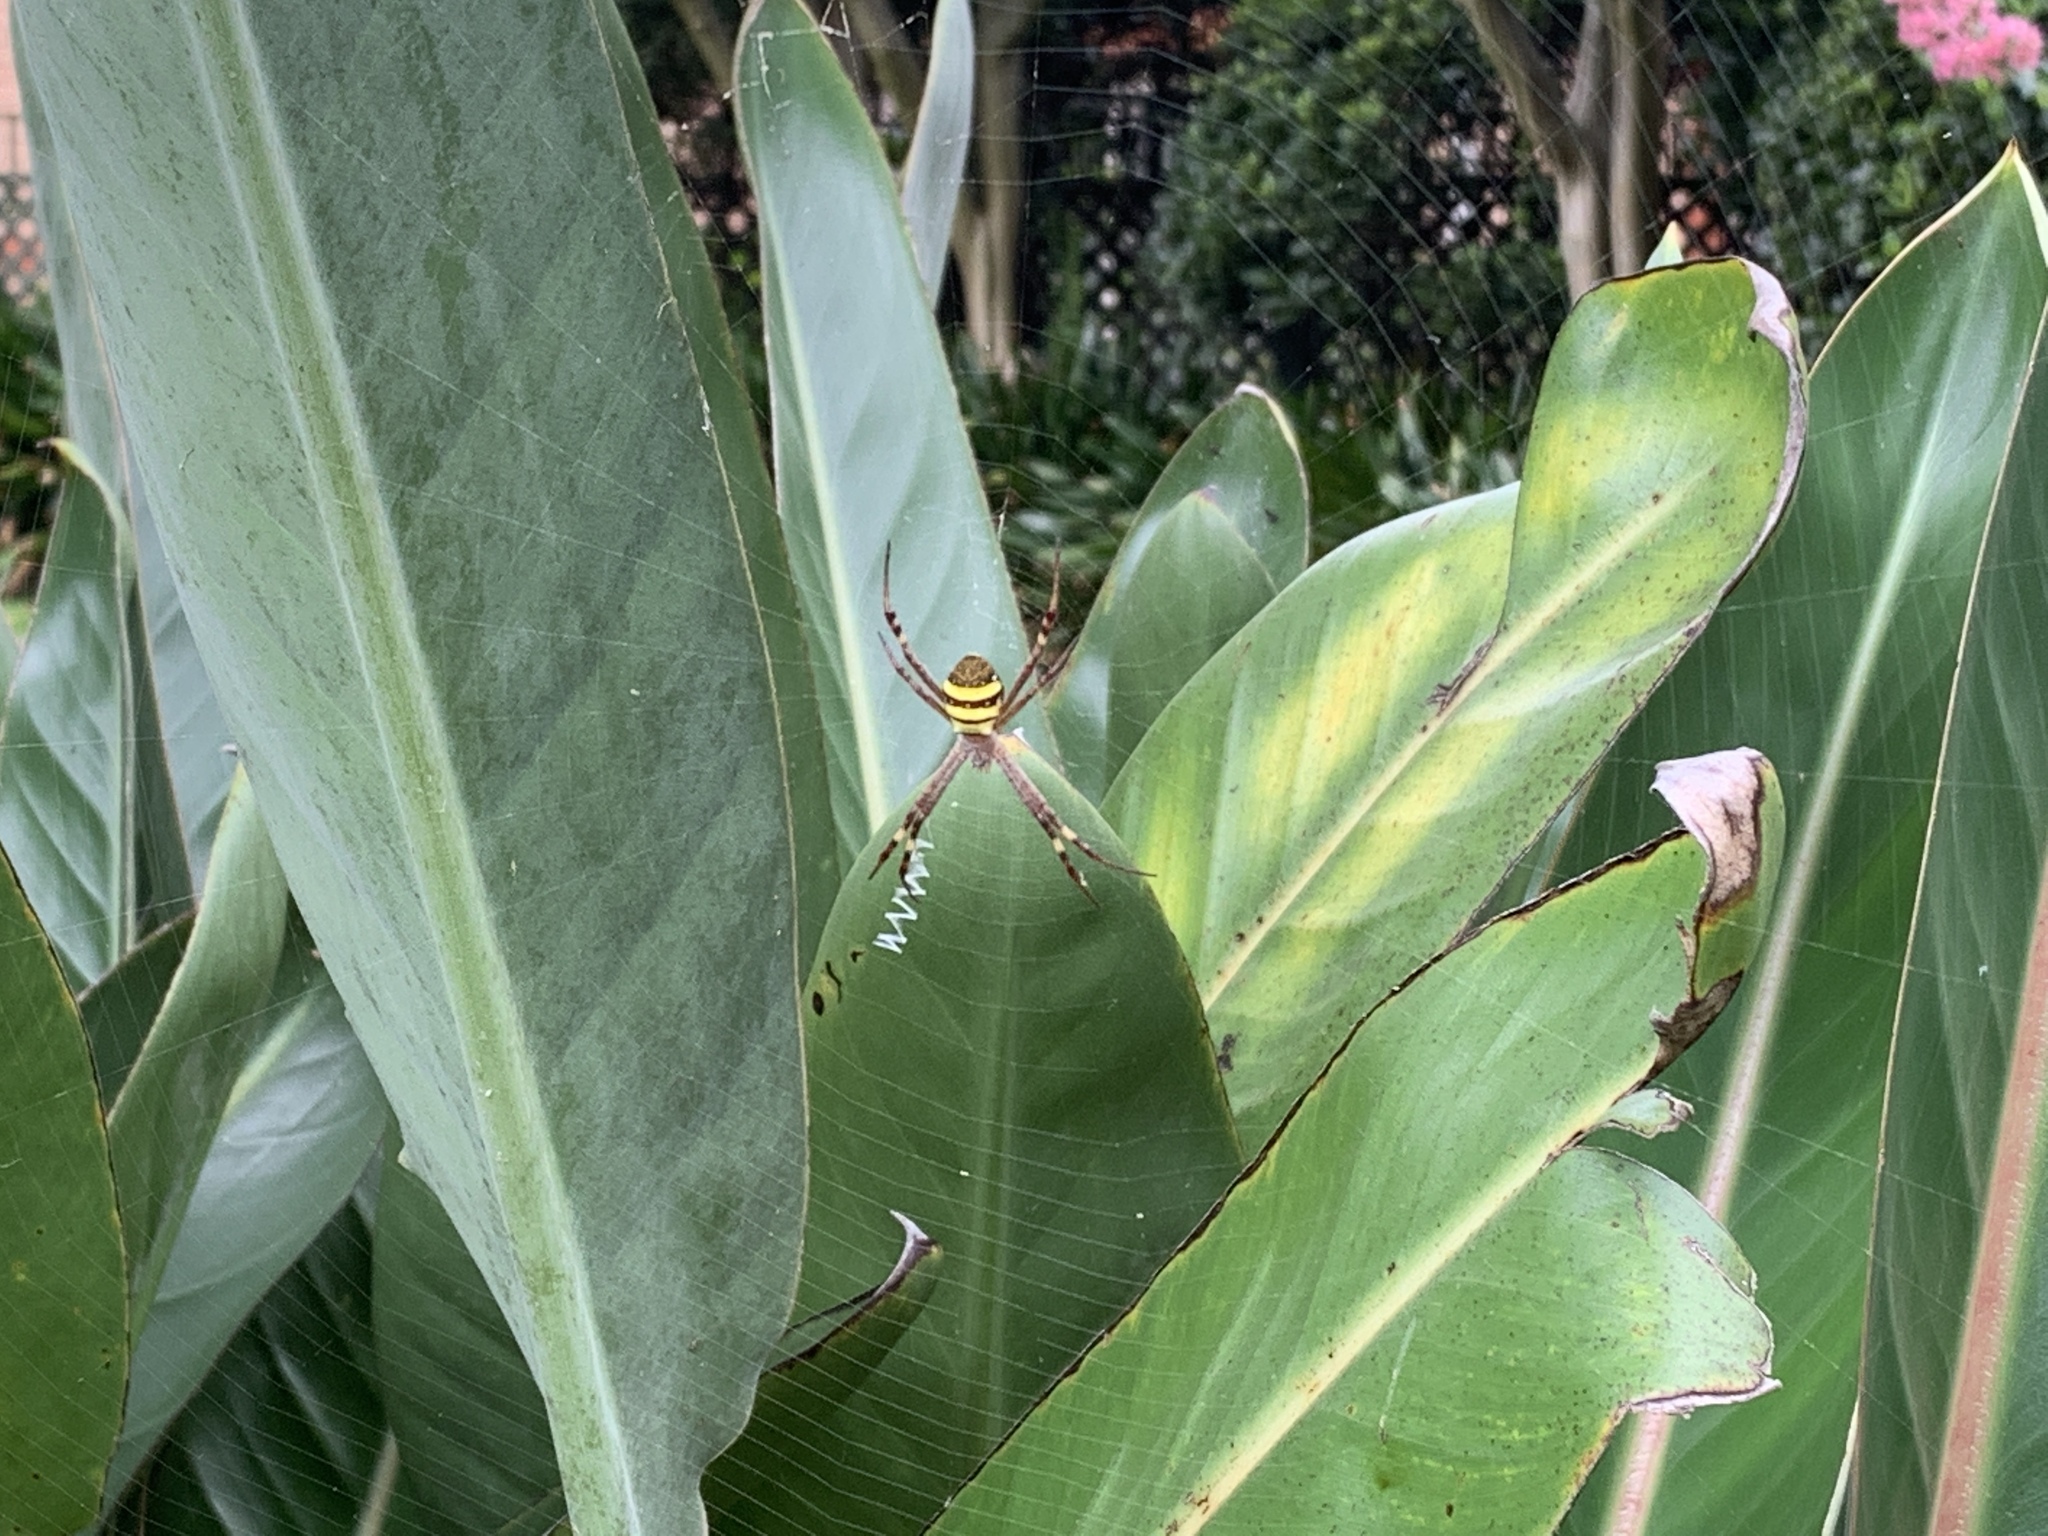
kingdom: Animalia
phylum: Arthropoda
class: Arachnida
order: Araneae
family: Araneidae
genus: Argiope
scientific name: Argiope keyserlingi
